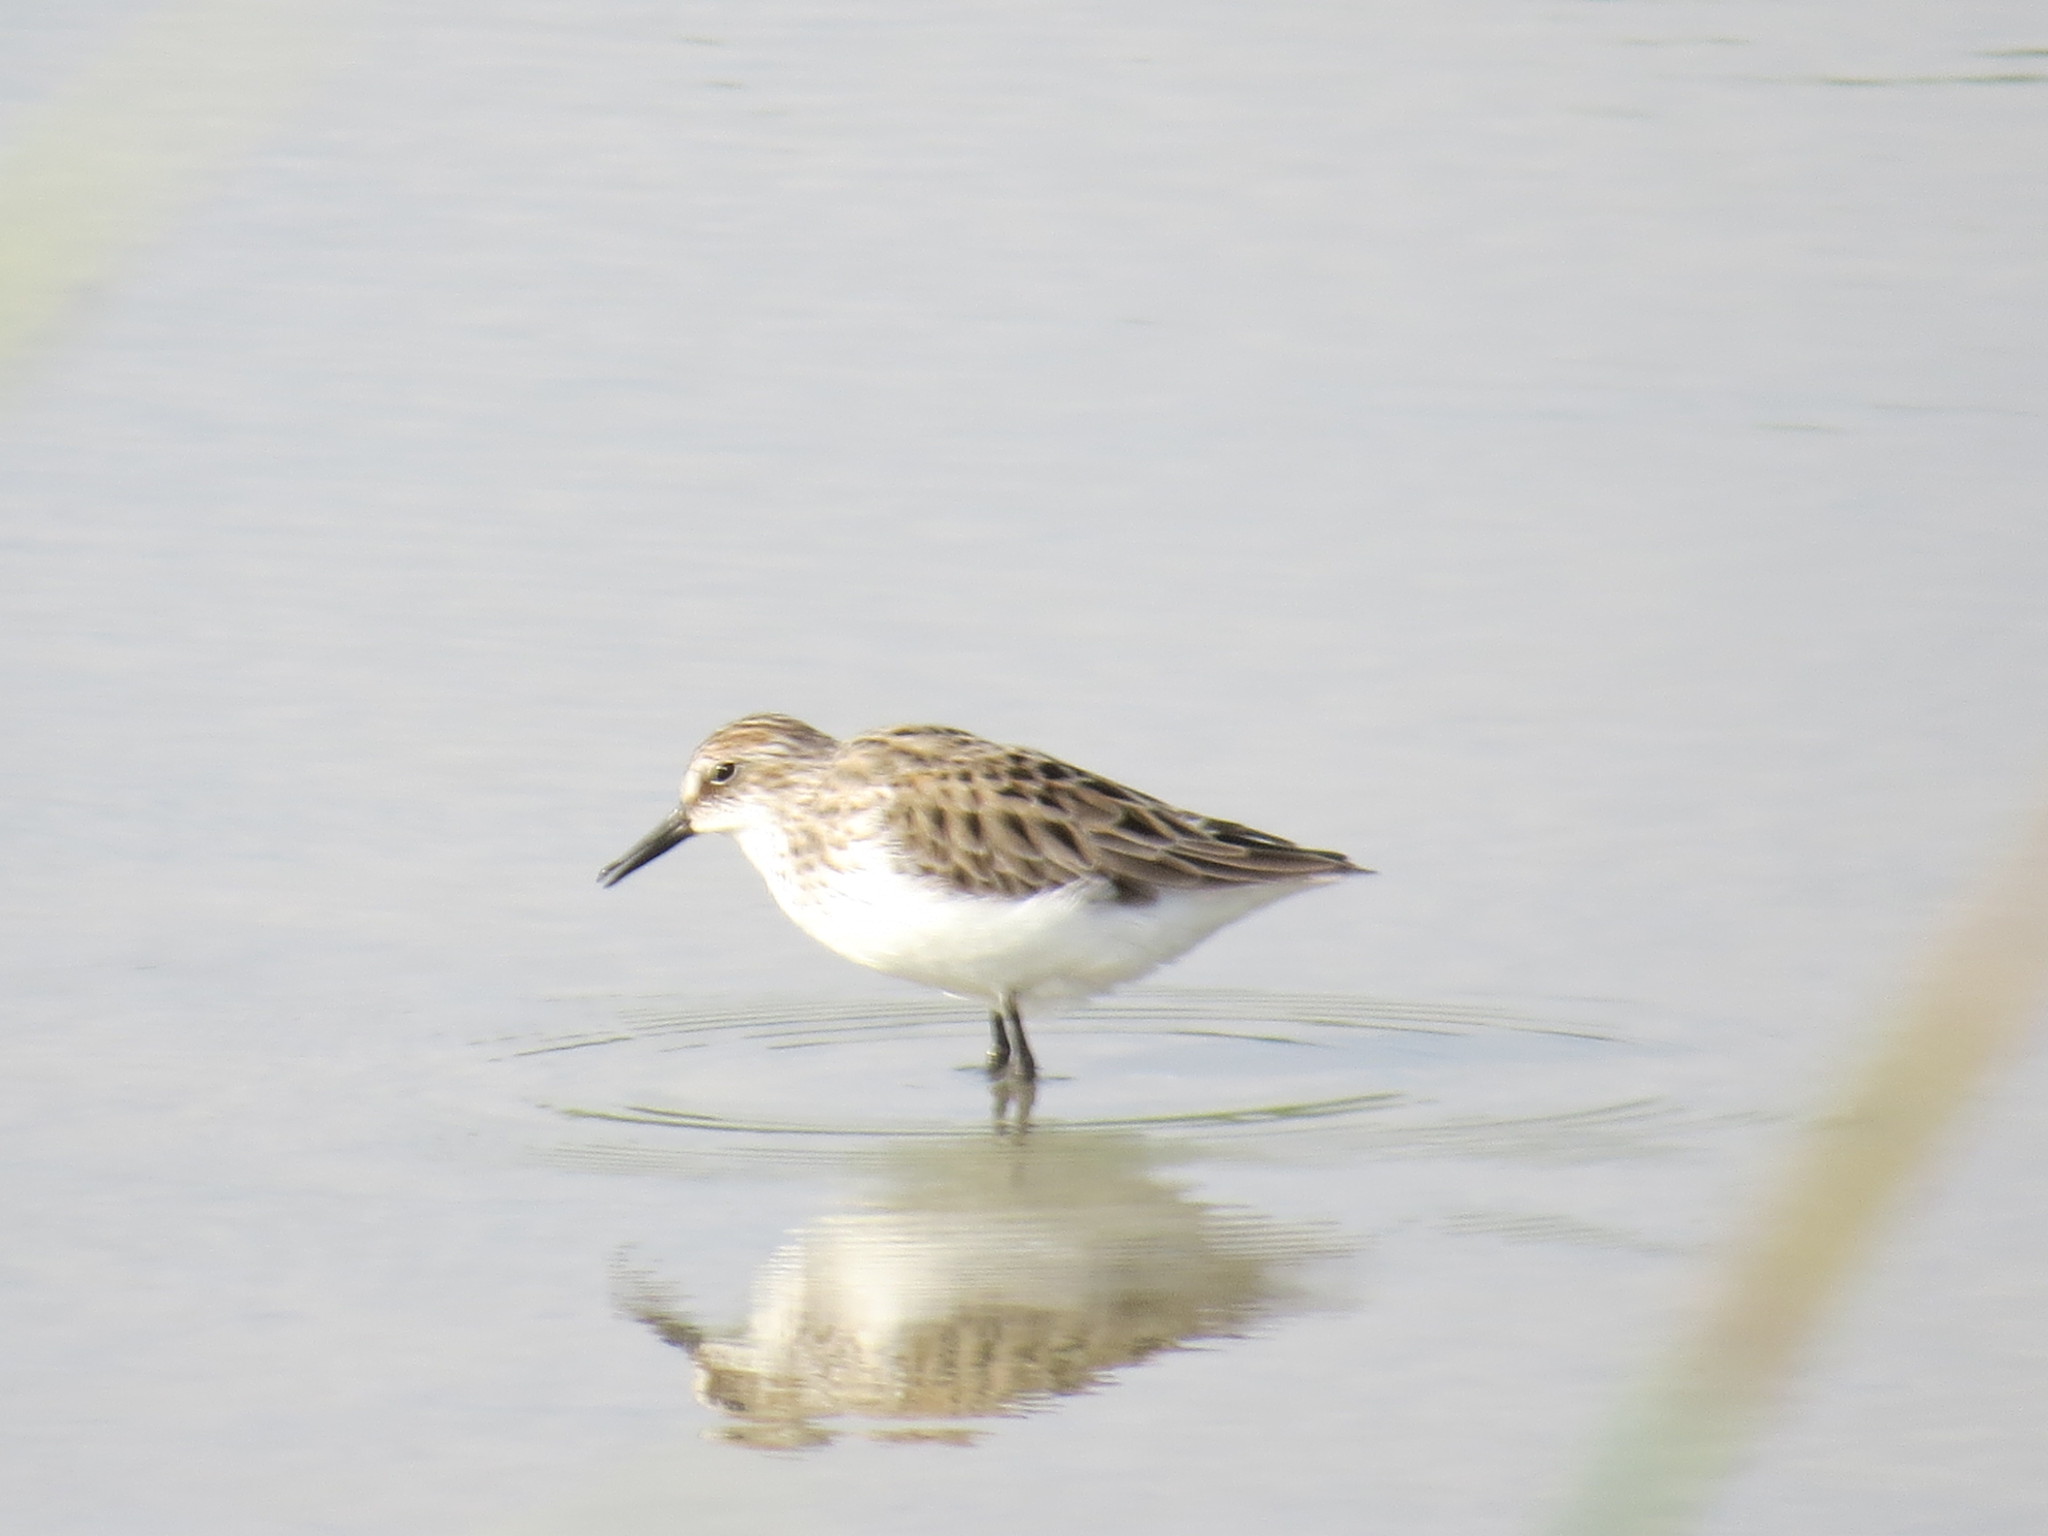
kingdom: Animalia
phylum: Chordata
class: Aves
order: Charadriiformes
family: Scolopacidae
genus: Calidris
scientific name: Calidris pusilla
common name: Semipalmated sandpiper
